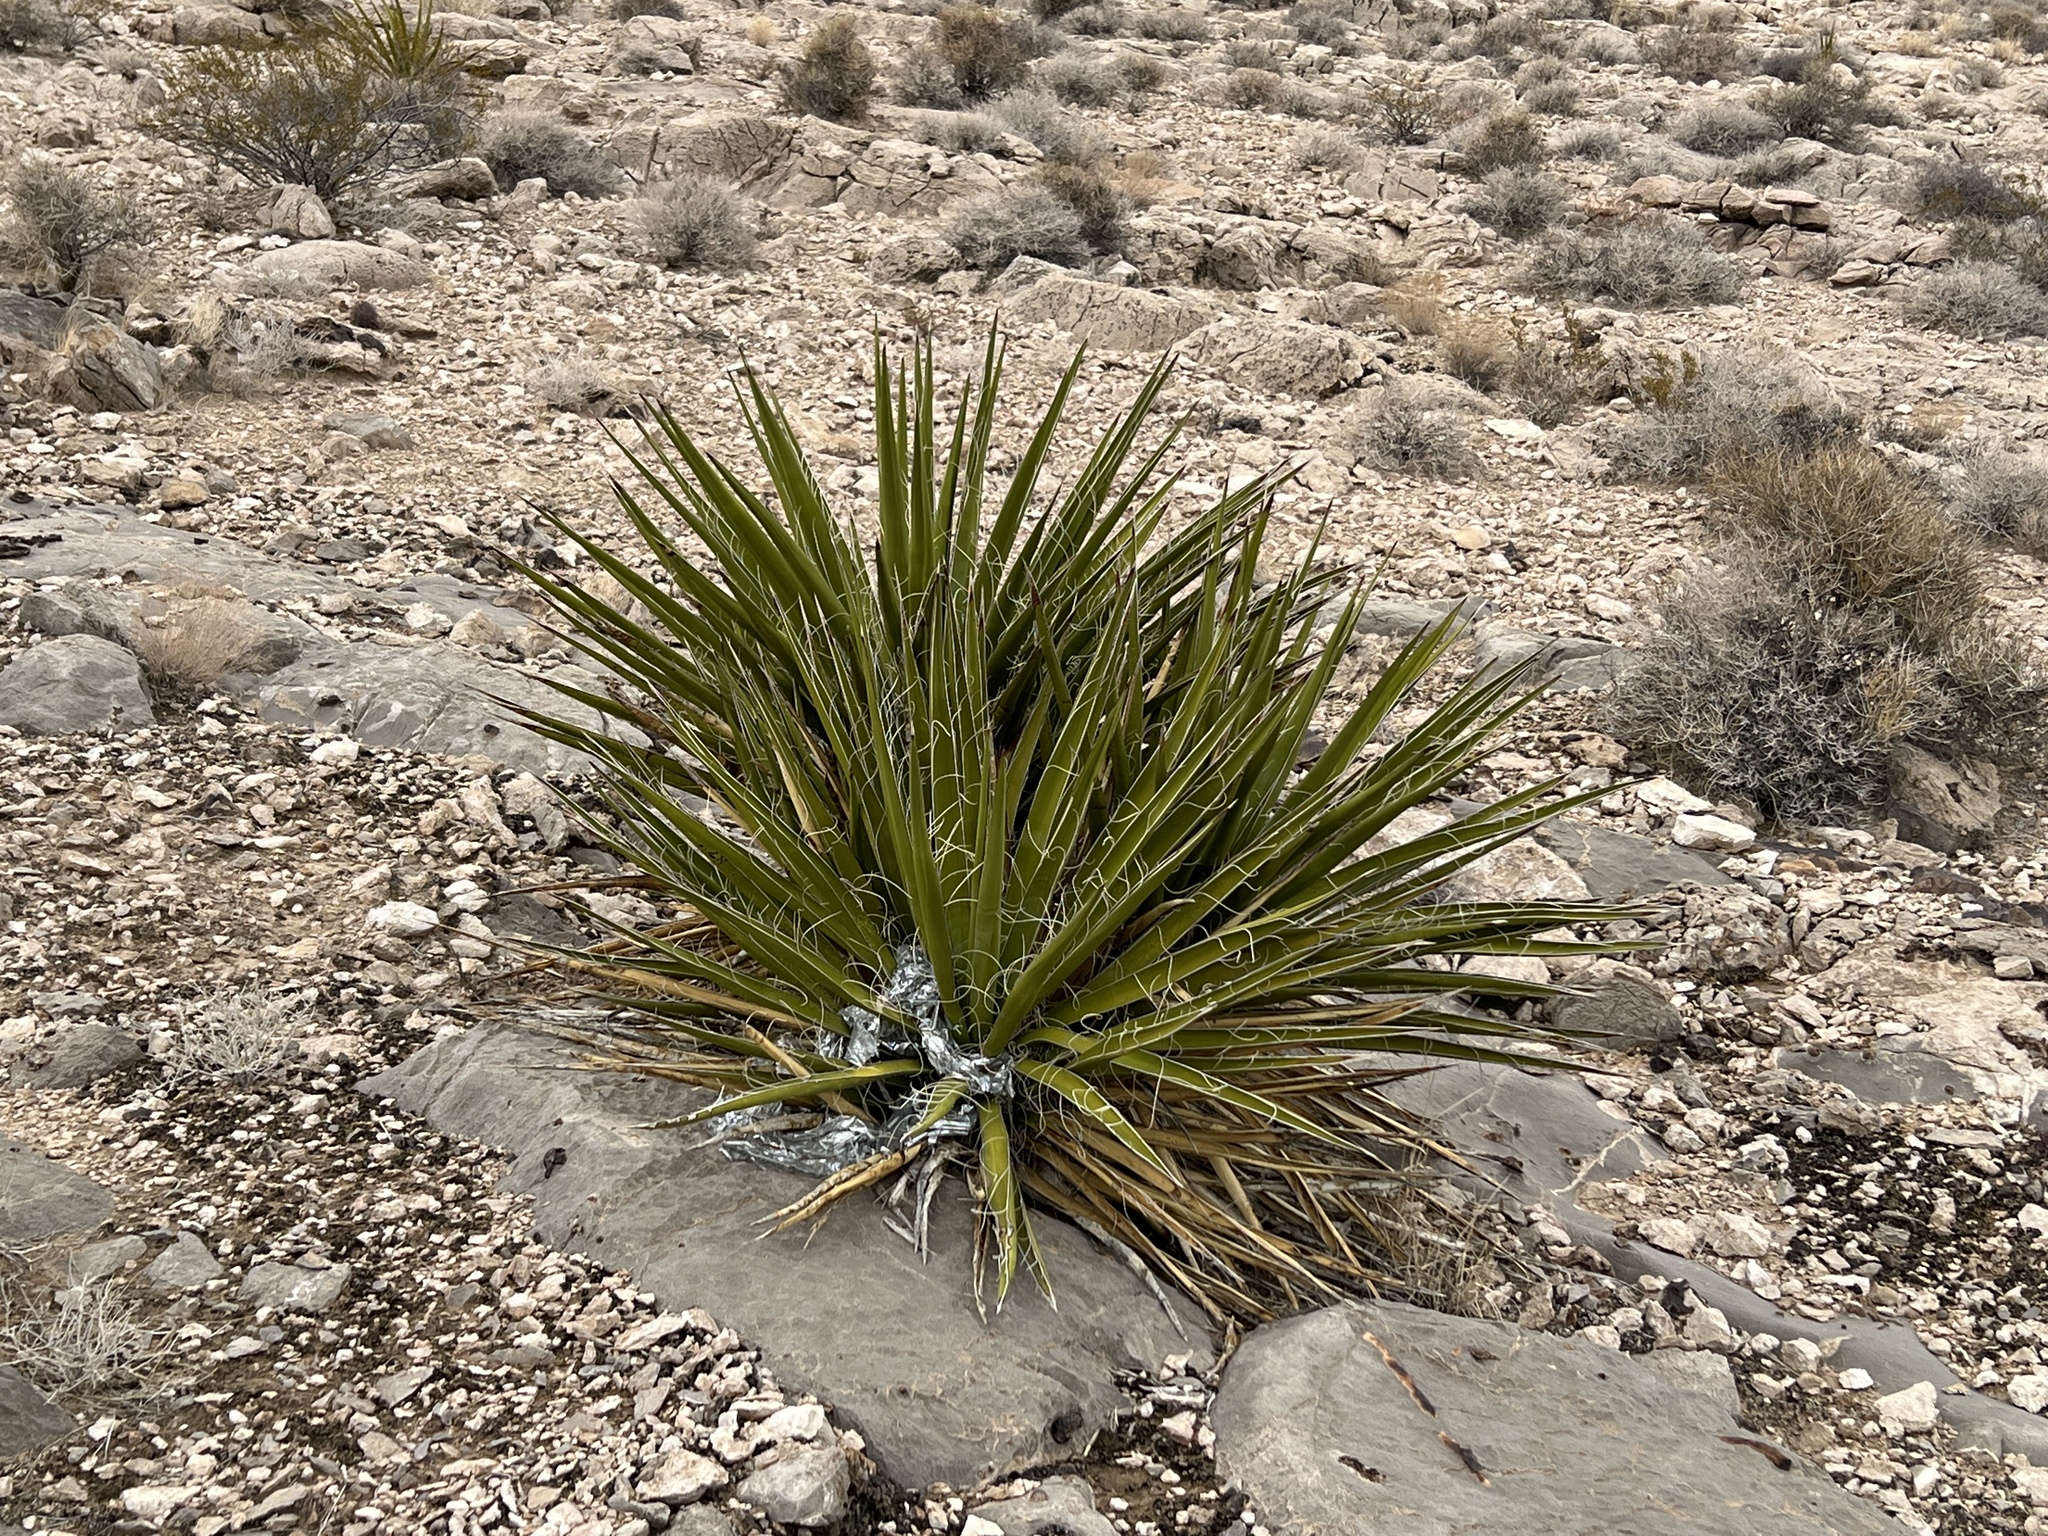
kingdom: Plantae
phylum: Tracheophyta
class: Liliopsida
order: Asparagales
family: Asparagaceae
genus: Yucca
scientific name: Yucca schidigera
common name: Mojave yucca
